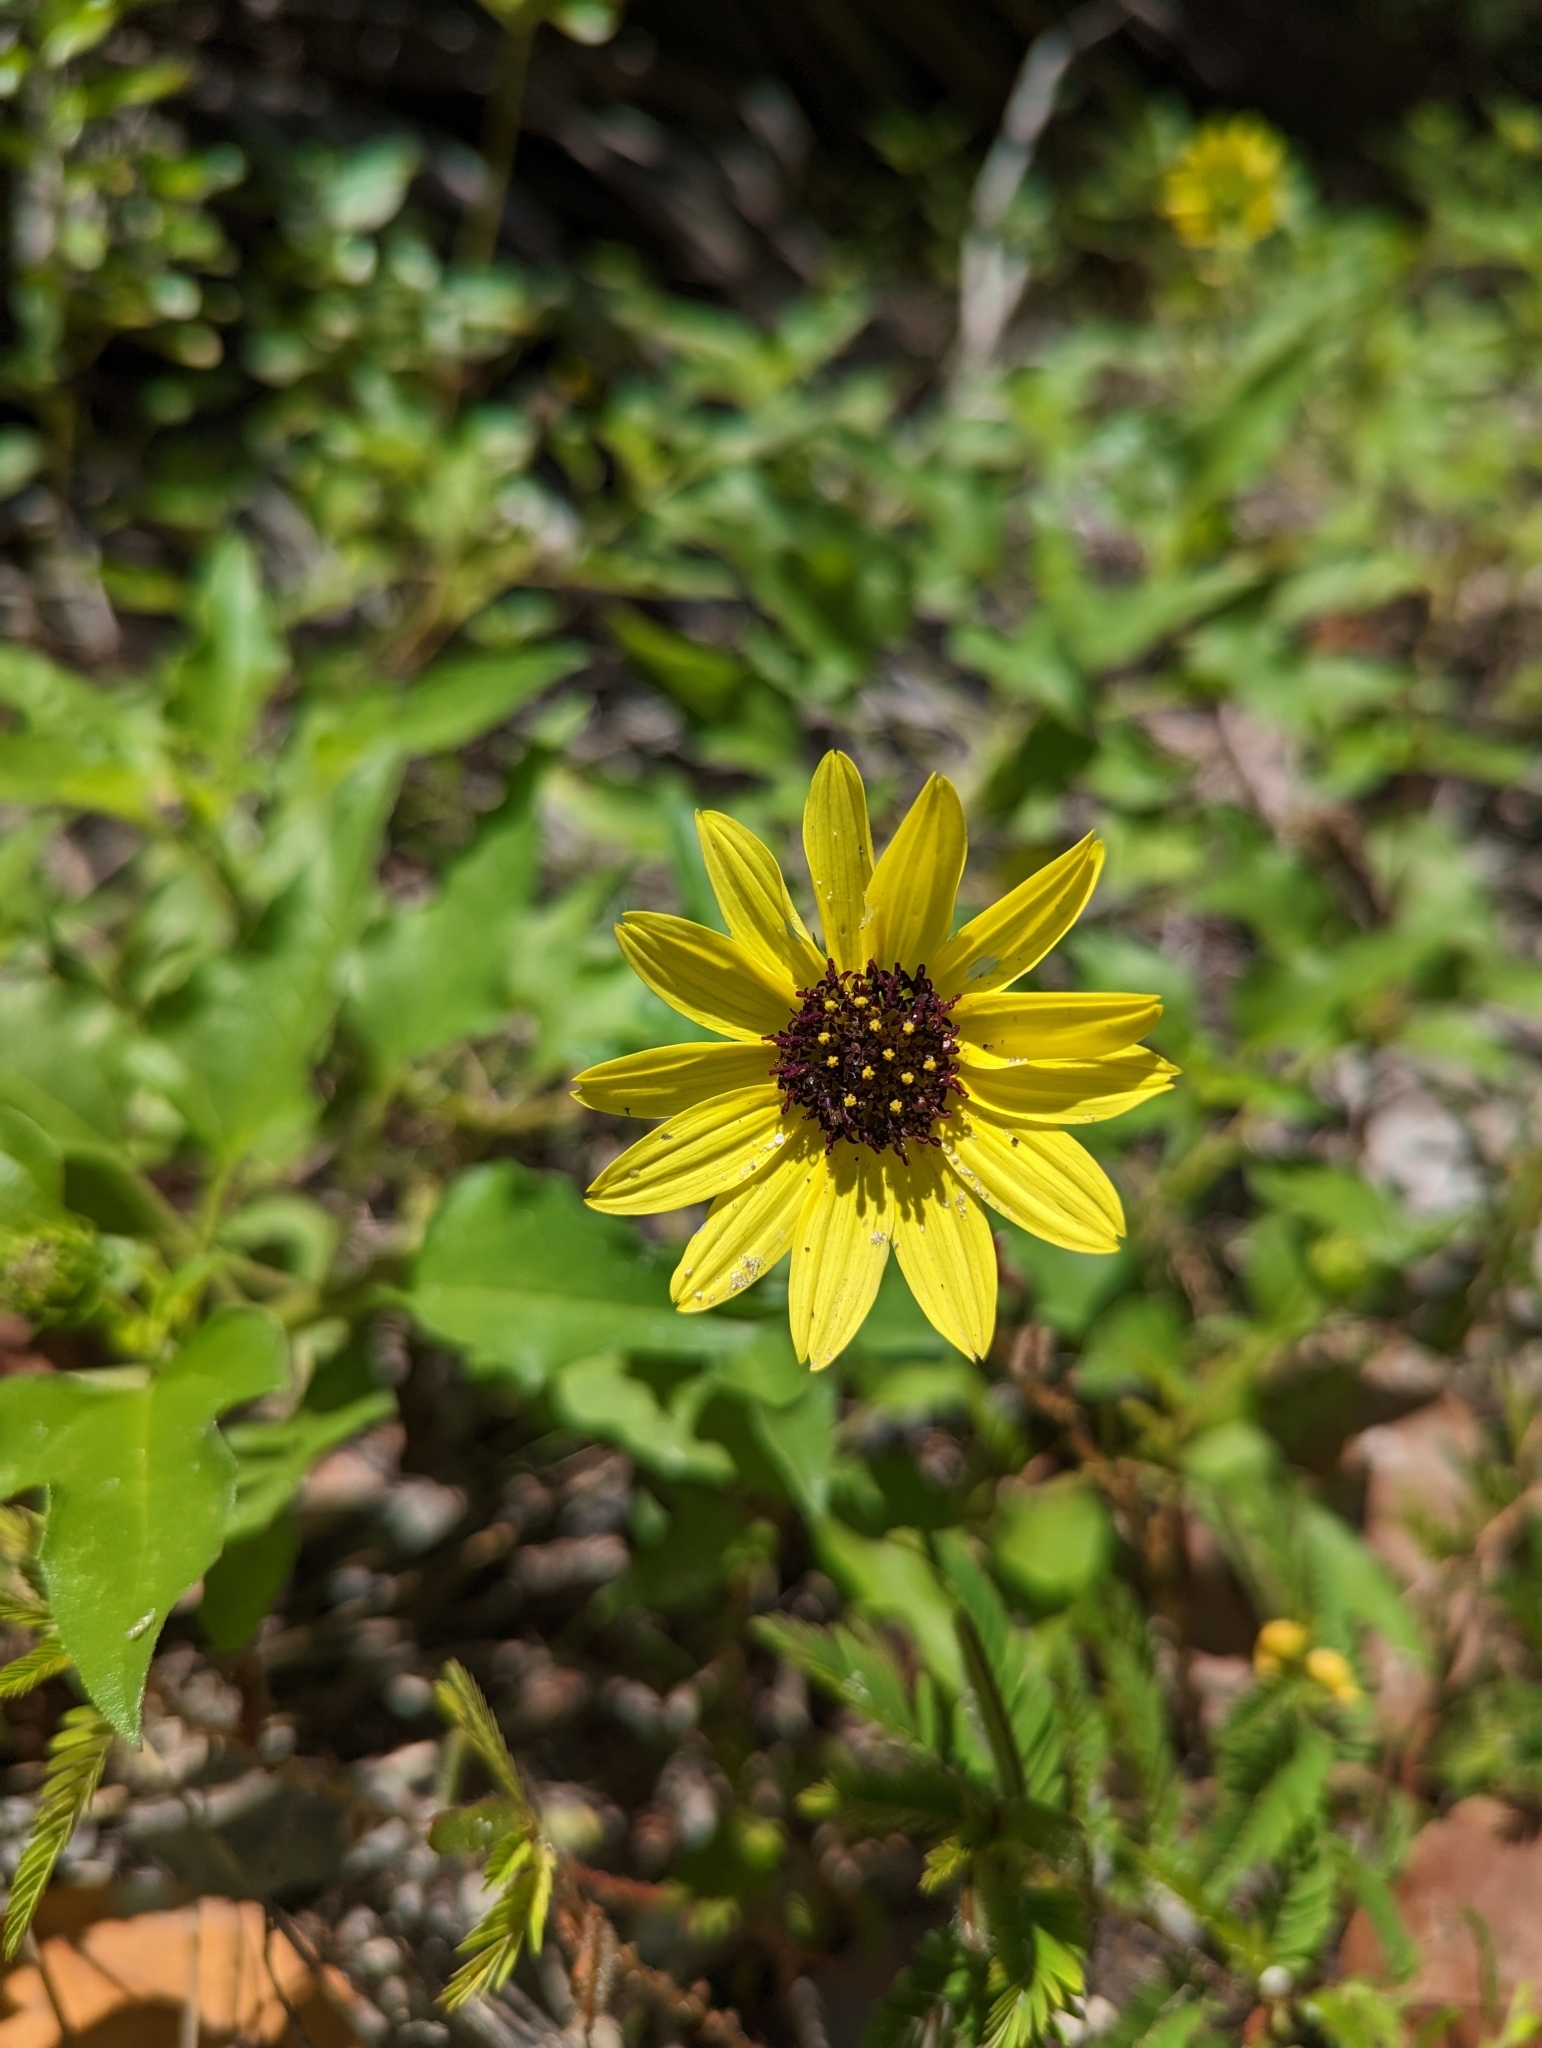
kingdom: Plantae
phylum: Tracheophyta
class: Magnoliopsida
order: Asterales
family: Asteraceae
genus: Helianthus
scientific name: Helianthus debilis
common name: Weak sunflower
